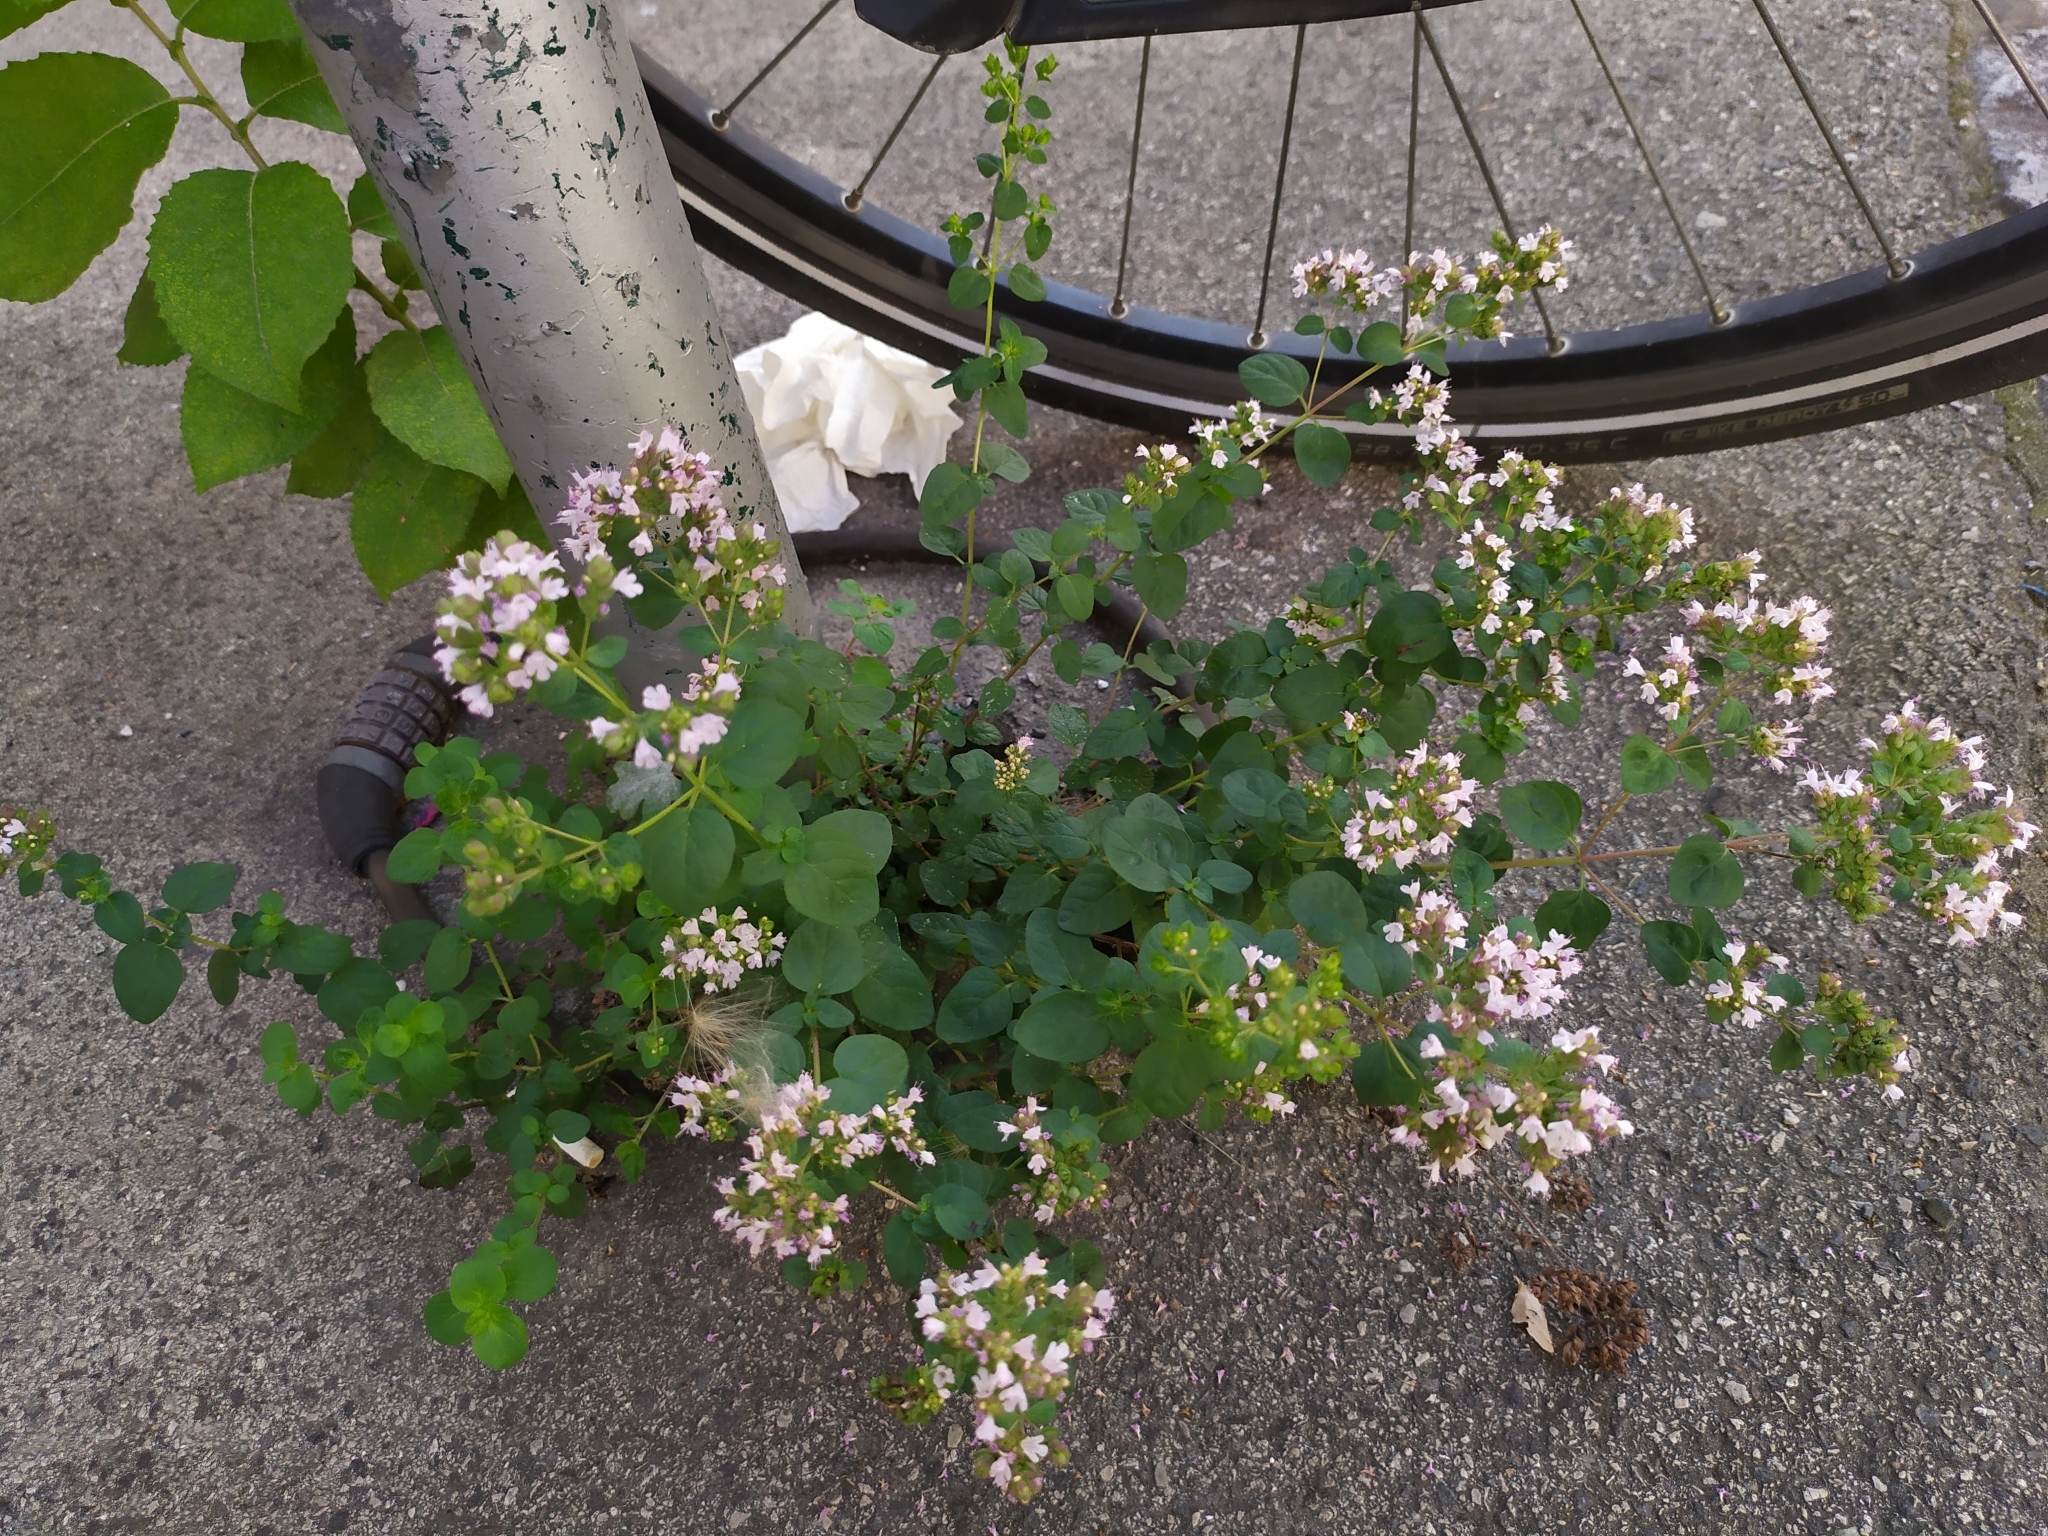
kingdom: Plantae
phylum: Tracheophyta
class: Magnoliopsida
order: Lamiales
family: Lamiaceae
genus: Origanum
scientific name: Origanum vulgare
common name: Wild marjoram
